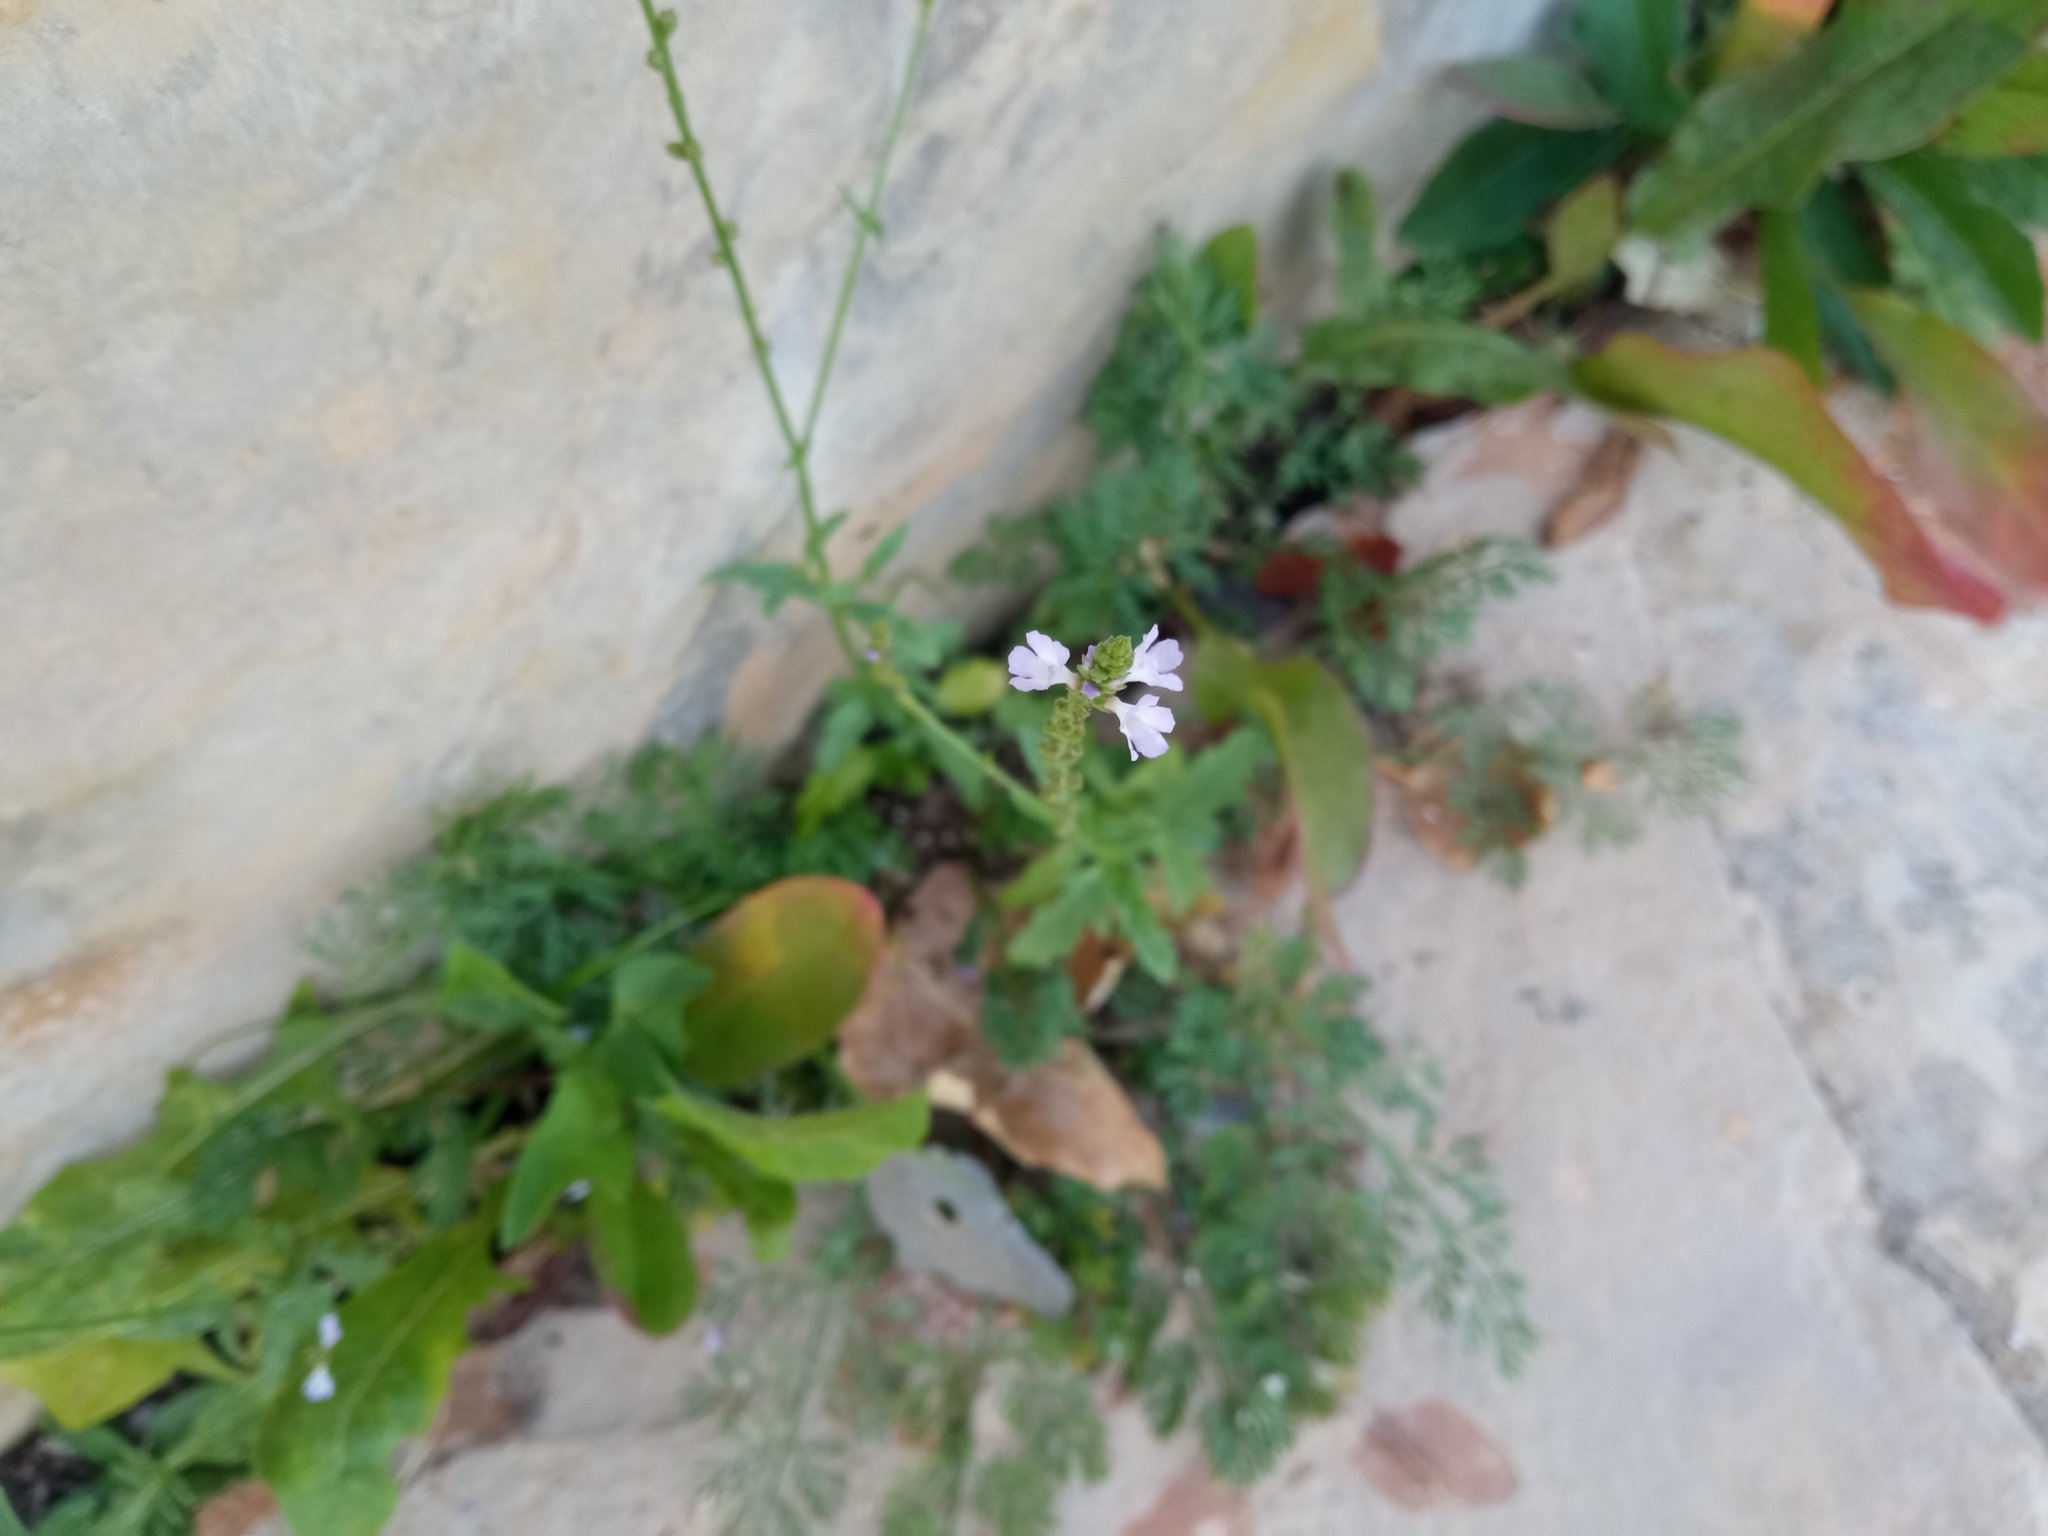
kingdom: Plantae
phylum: Tracheophyta
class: Magnoliopsida
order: Lamiales
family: Verbenaceae
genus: Verbena
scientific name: Verbena officinalis
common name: Vervain
